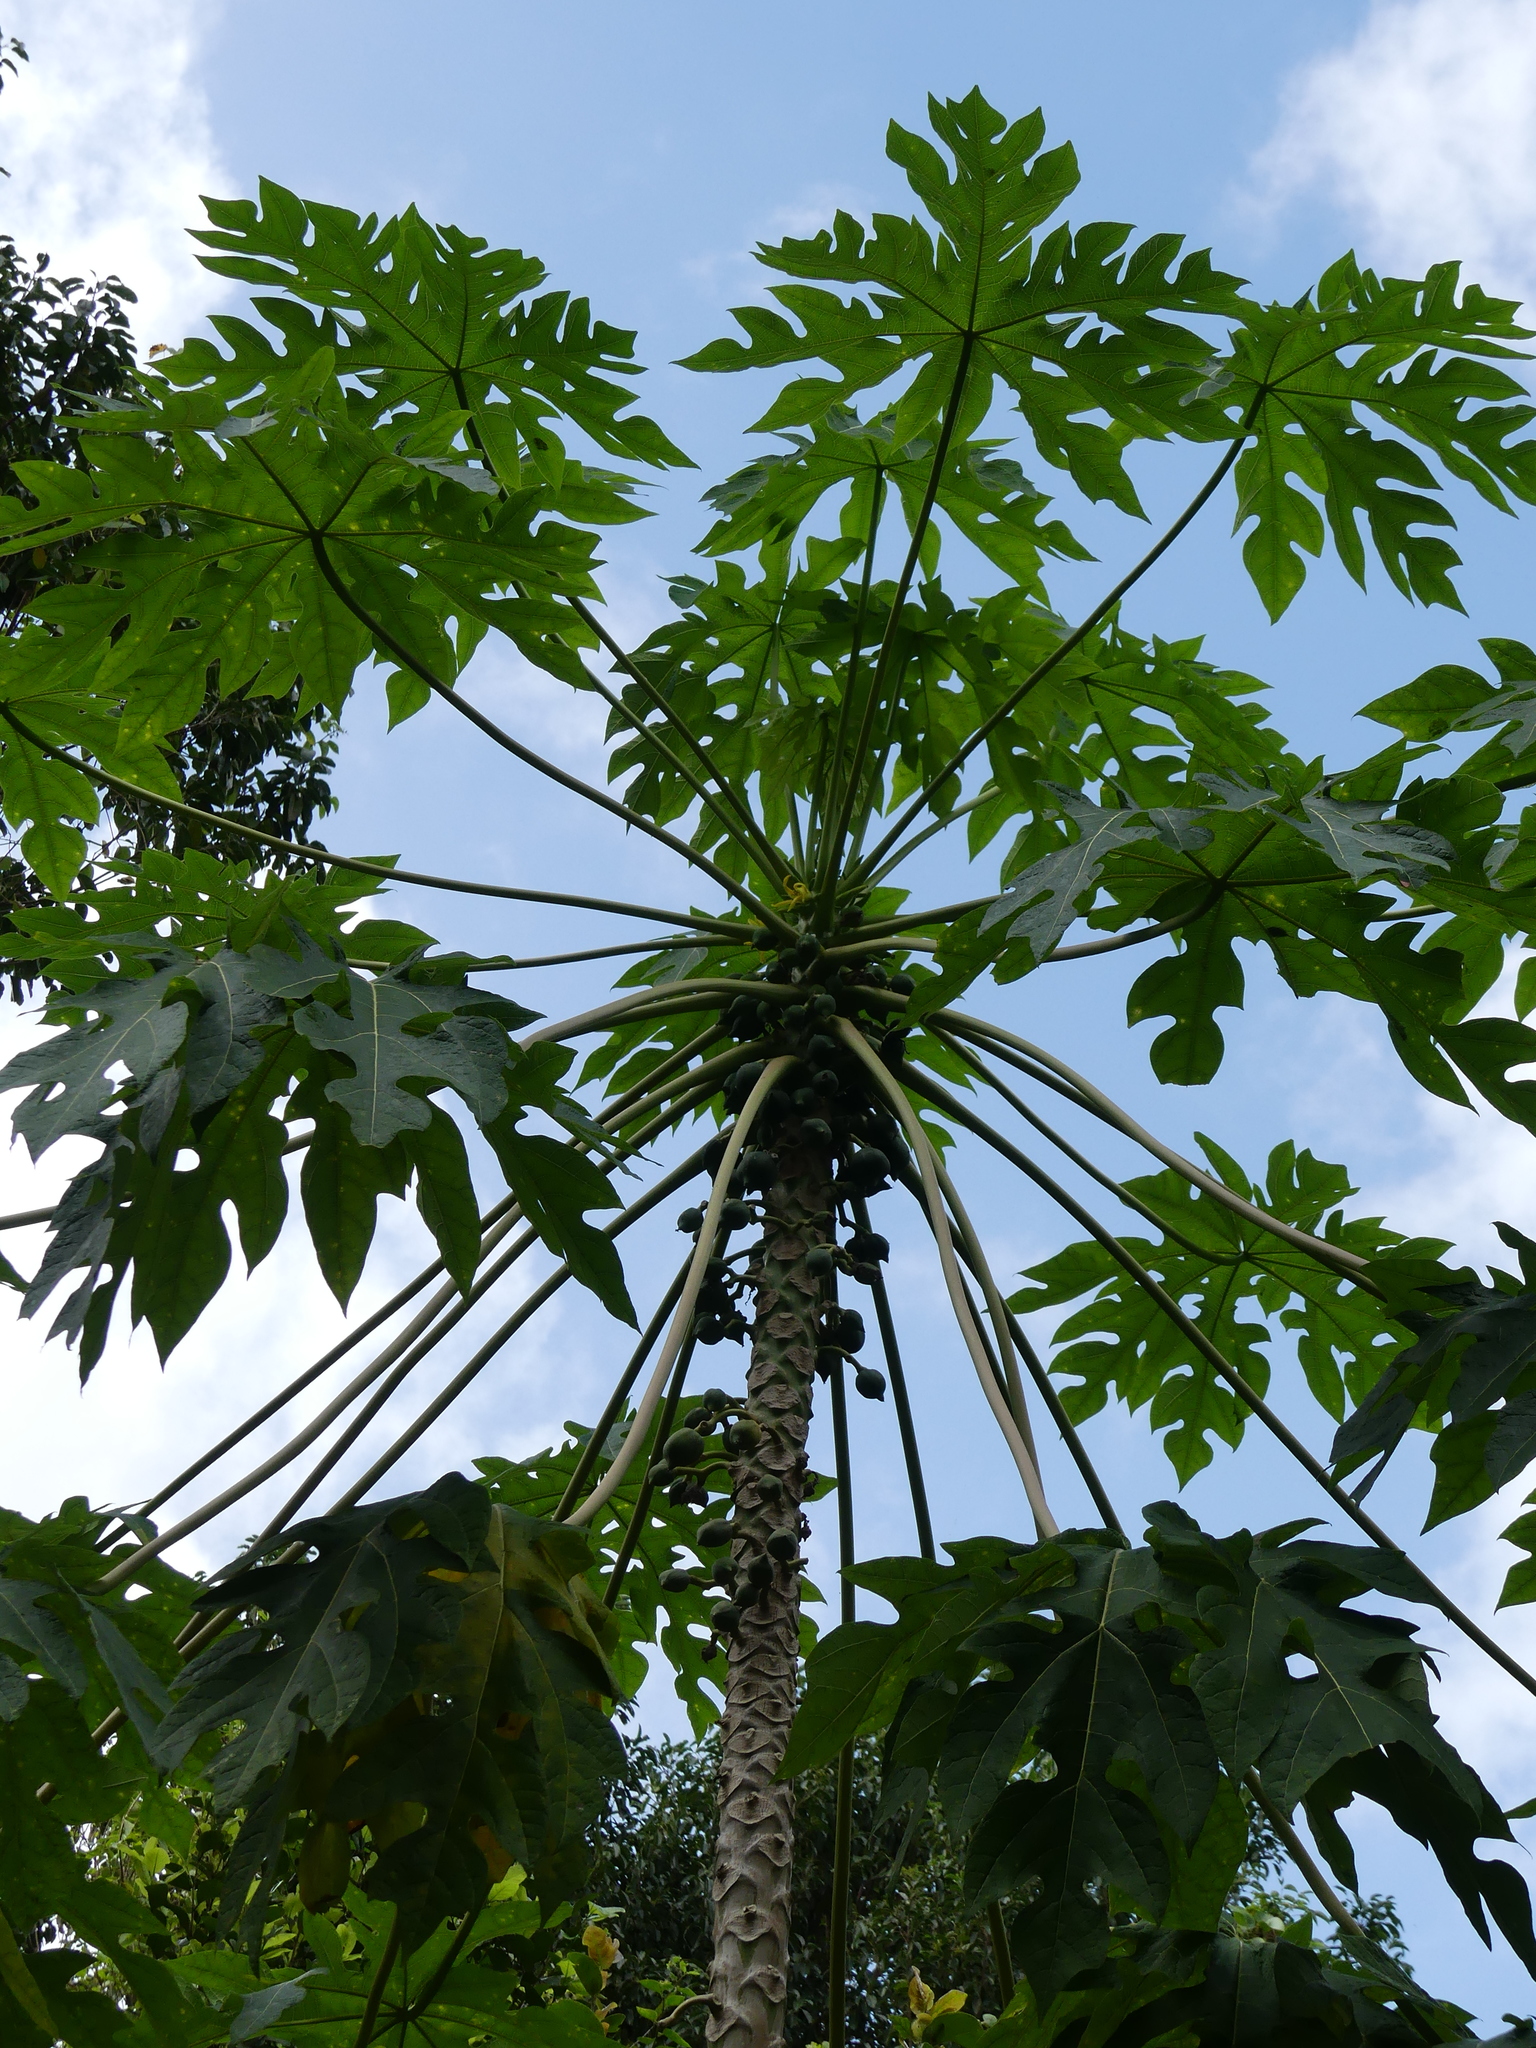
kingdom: Plantae
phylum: Tracheophyta
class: Magnoliopsida
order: Brassicales
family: Caricaceae
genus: Carica
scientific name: Carica papaya
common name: Papaya
